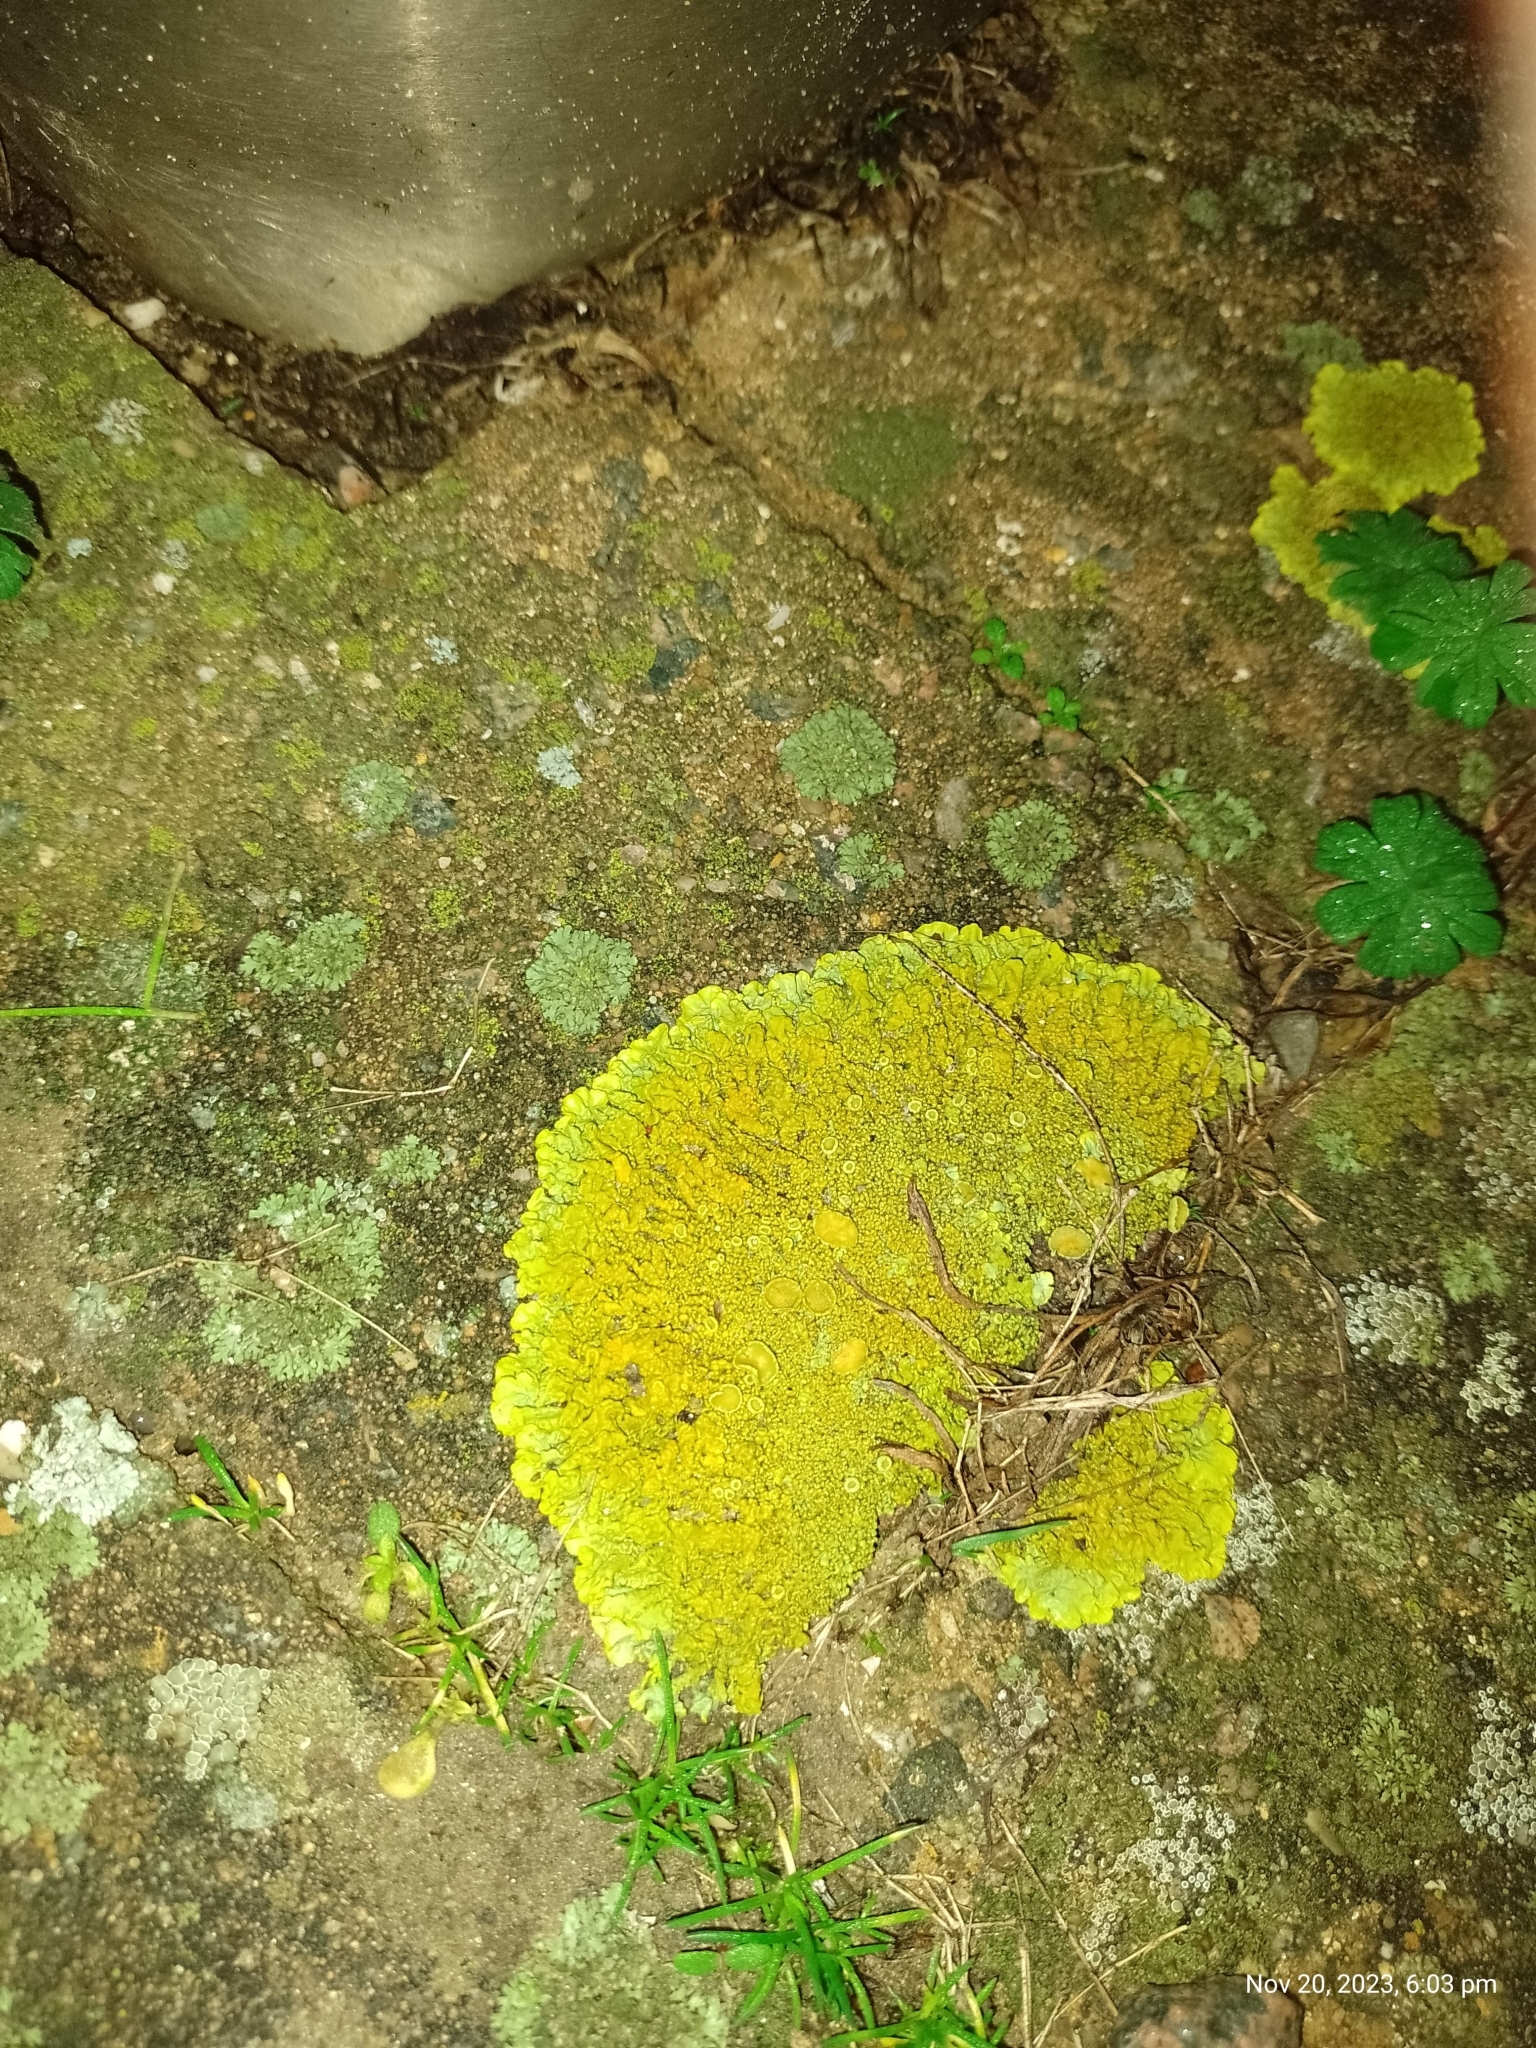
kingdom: Fungi
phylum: Ascomycota
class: Lecanoromycetes
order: Teloschistales
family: Teloschistaceae
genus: Xanthoria
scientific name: Xanthoria calcicola
